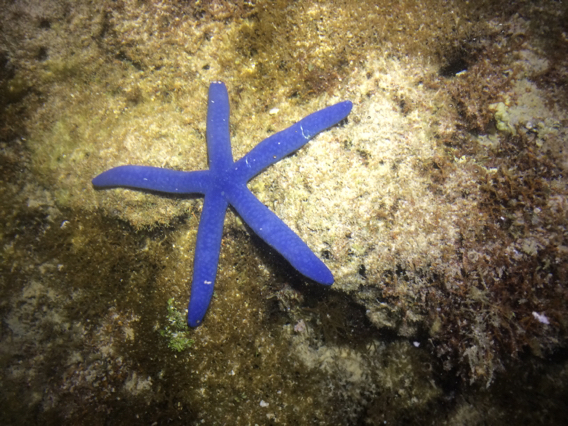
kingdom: Animalia
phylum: Echinodermata
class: Asteroidea
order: Valvatida
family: Ophidiasteridae
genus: Linckia
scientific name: Linckia laevigata
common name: Azure sea star
